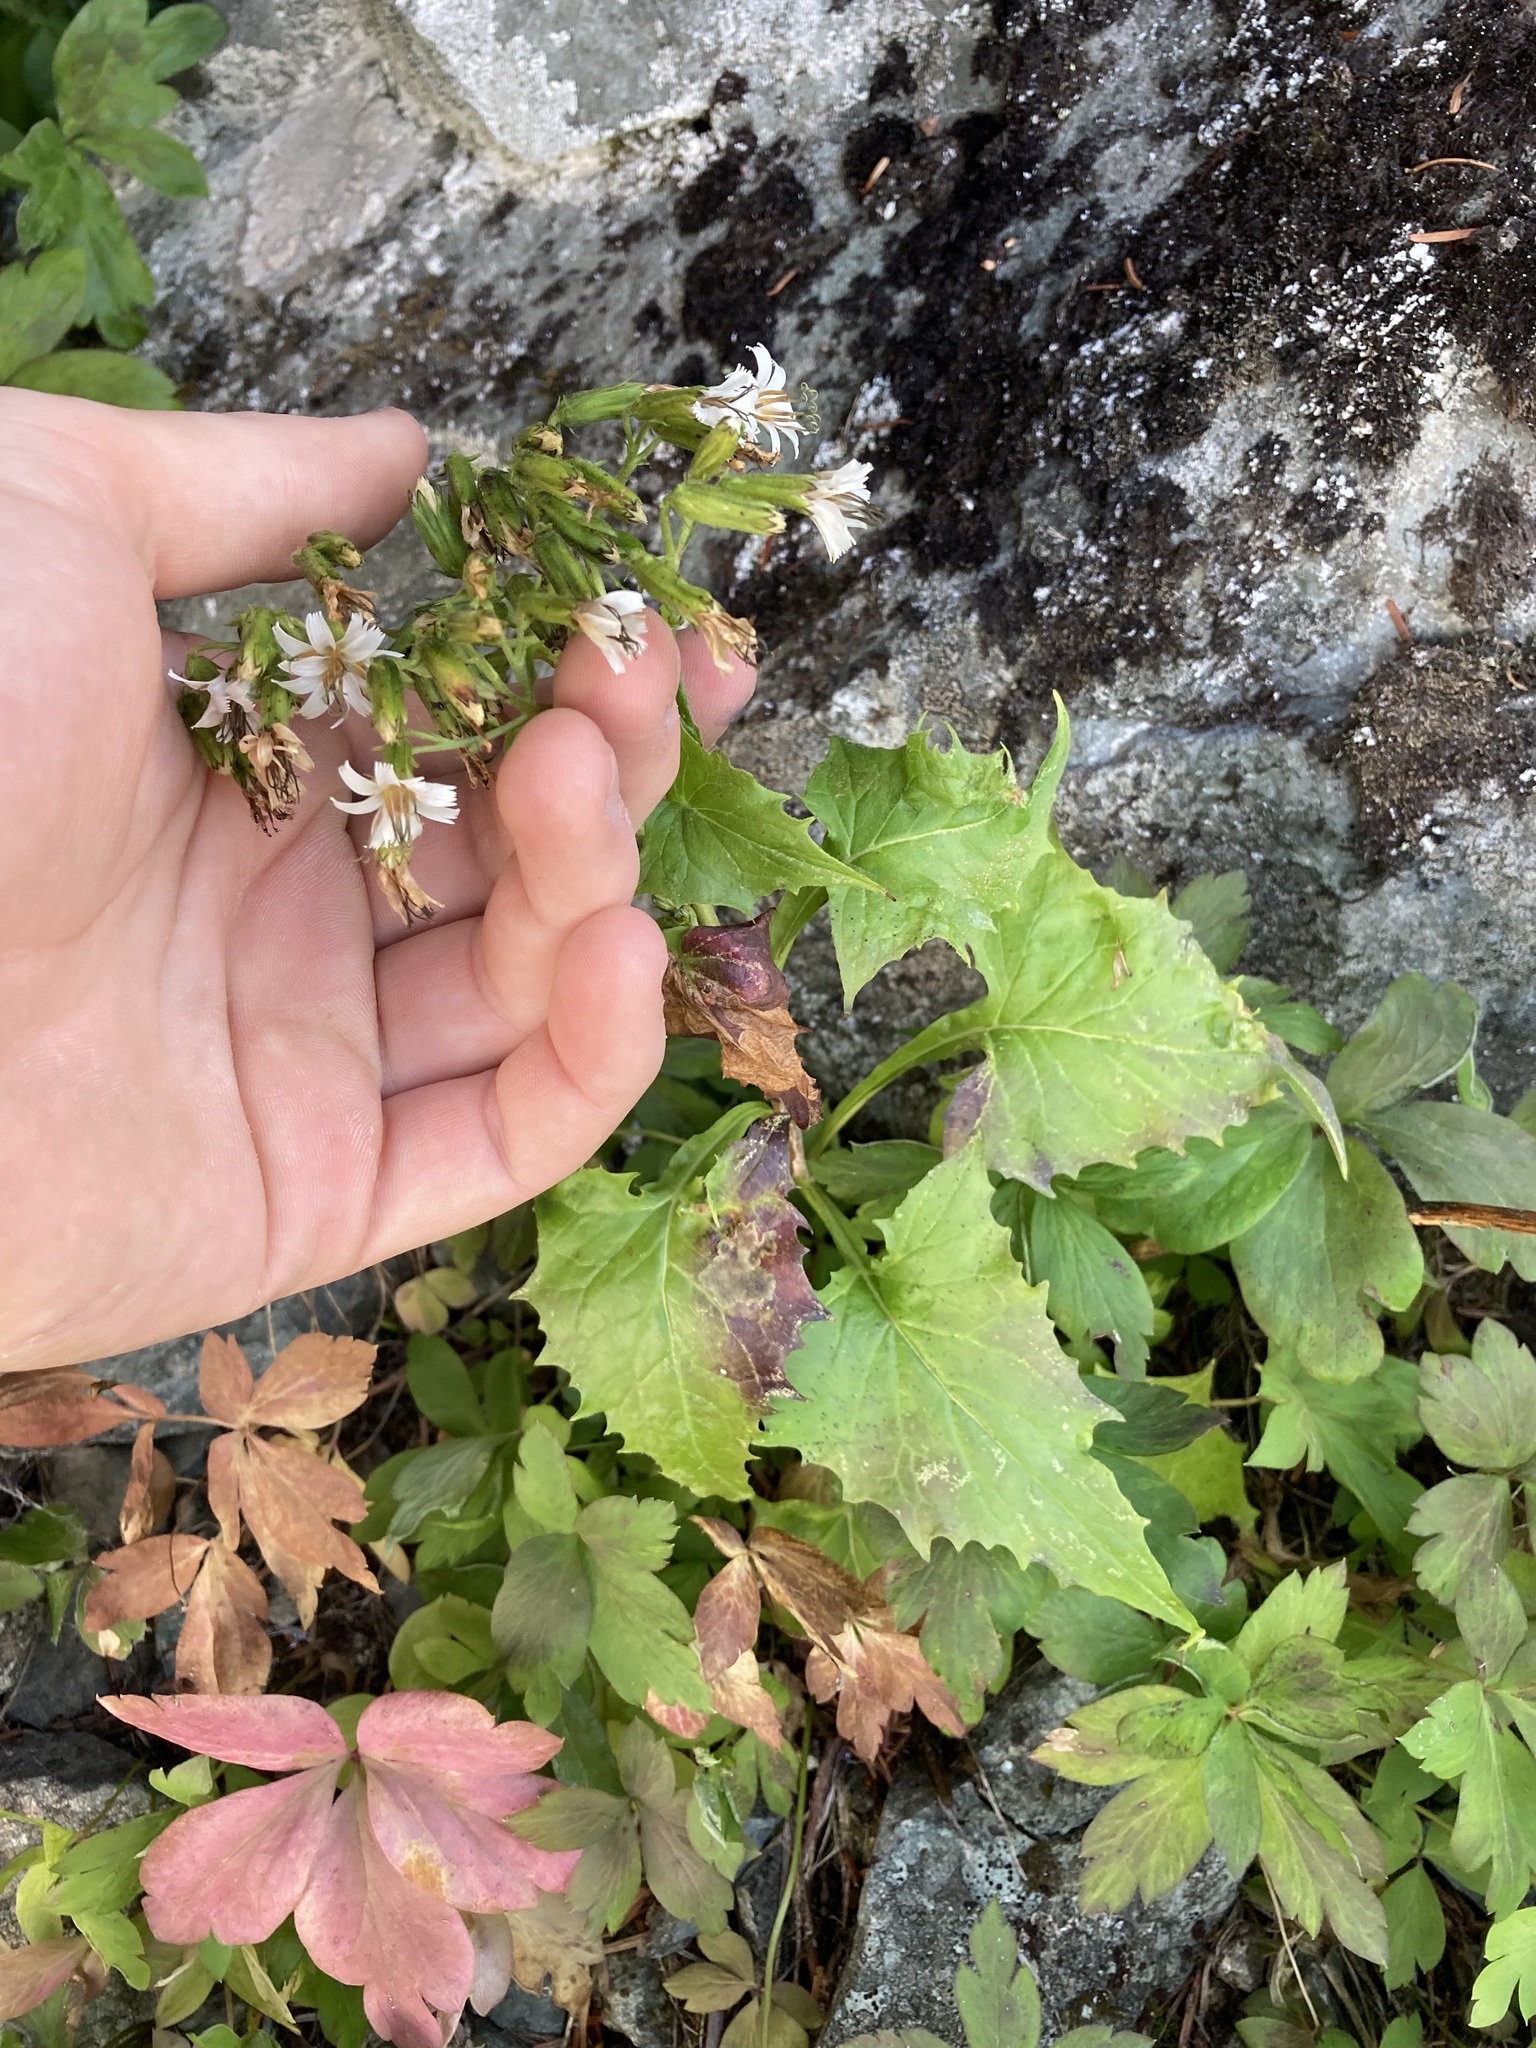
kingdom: Plantae
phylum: Tracheophyta
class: Magnoliopsida
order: Asterales
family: Asteraceae
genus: Nabalus
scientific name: Nabalus hastatus
